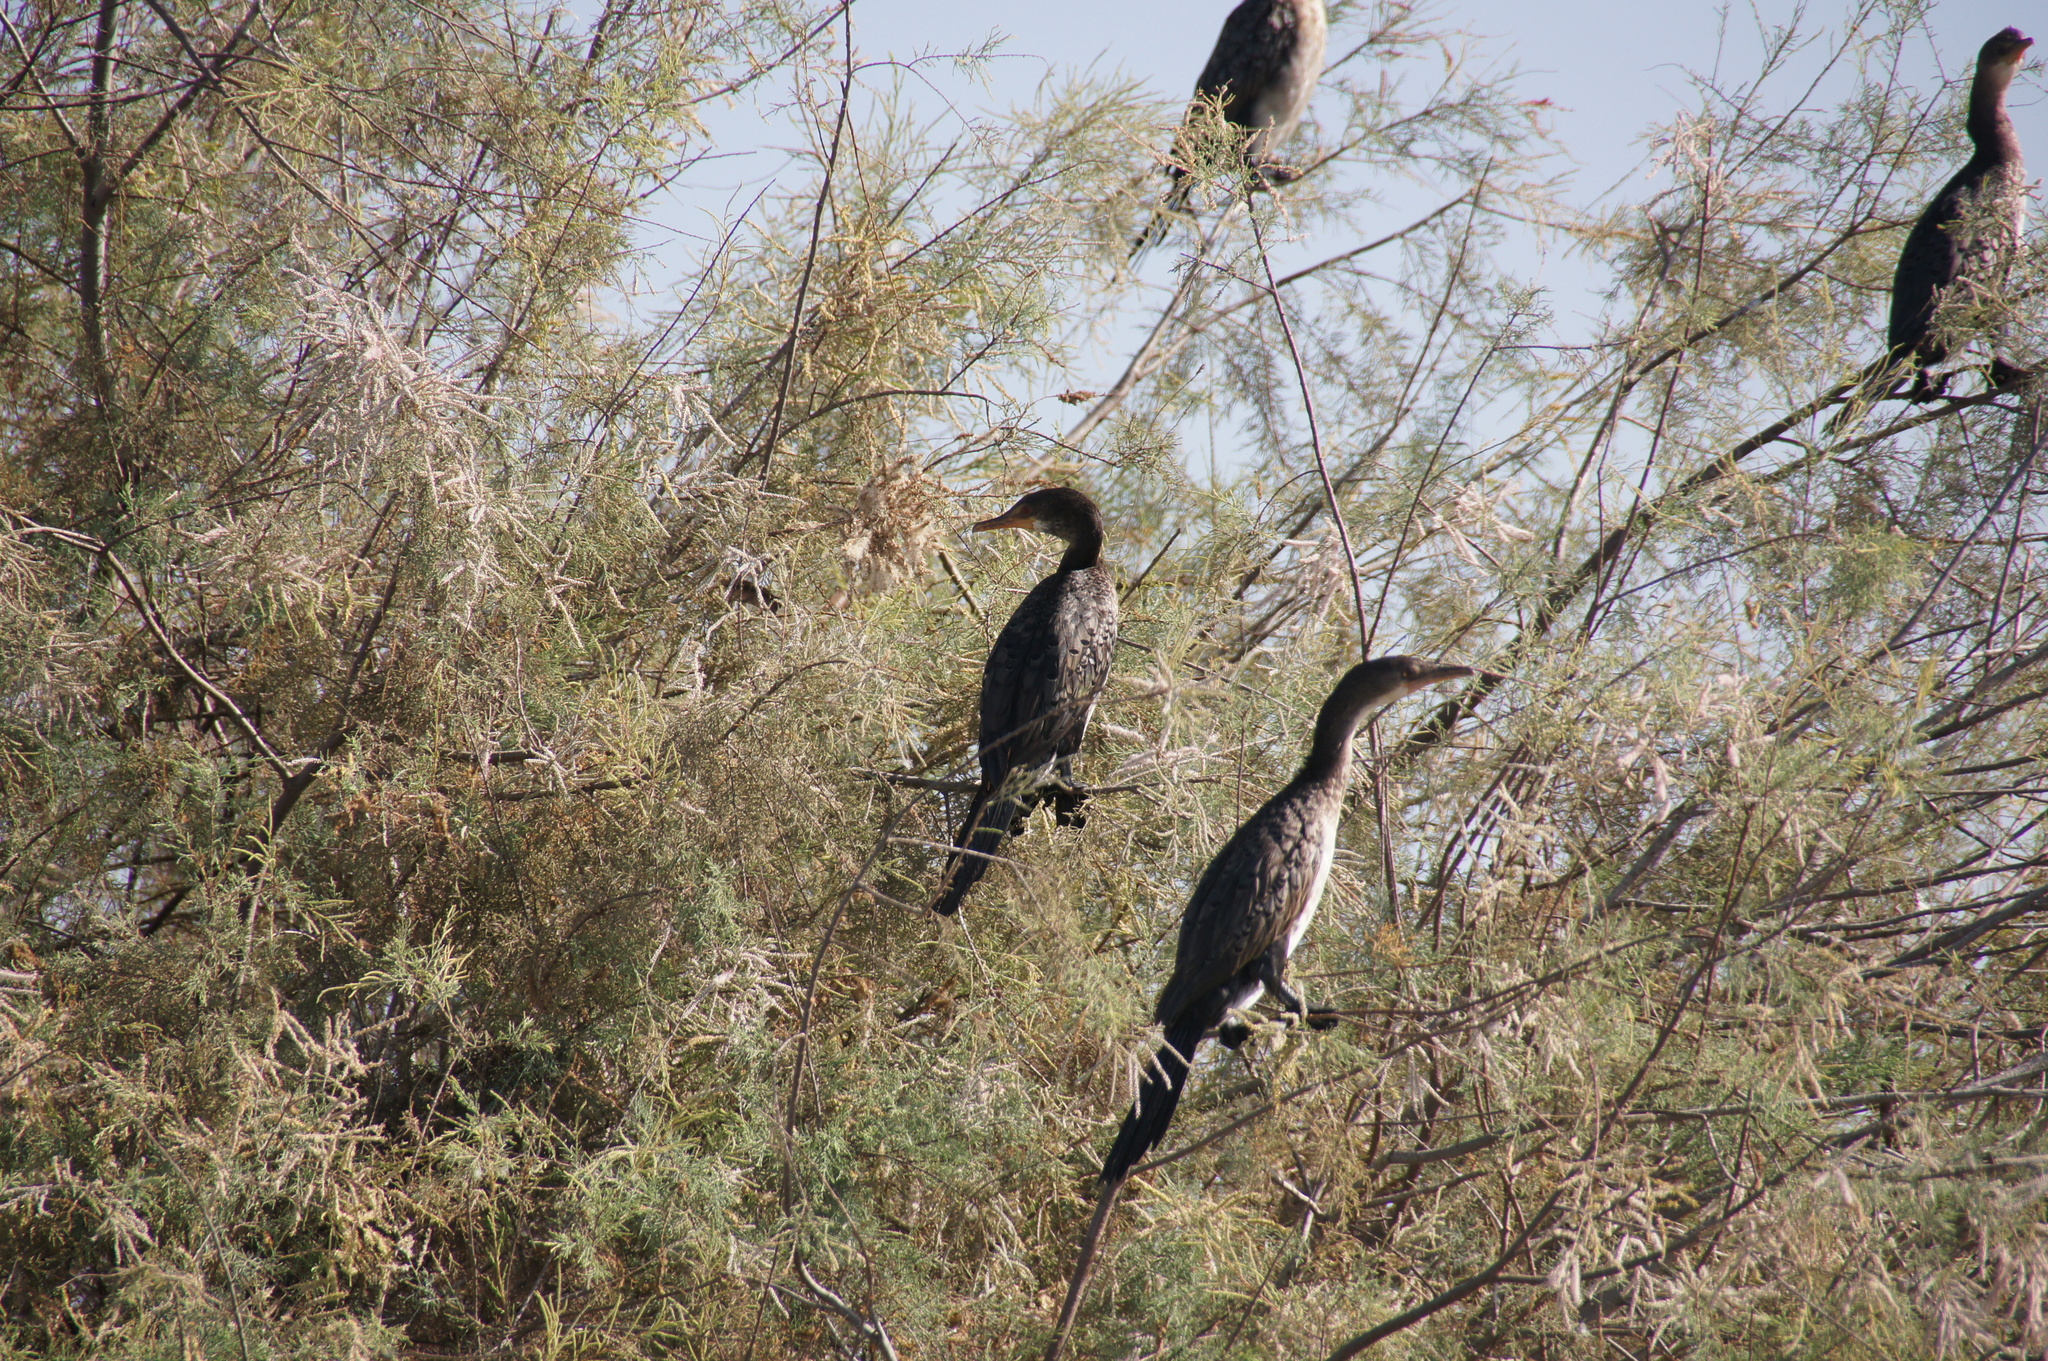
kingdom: Animalia
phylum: Chordata
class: Aves
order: Suliformes
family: Phalacrocoracidae
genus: Microcarbo
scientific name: Microcarbo africanus
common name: Long-tailed cormorant
